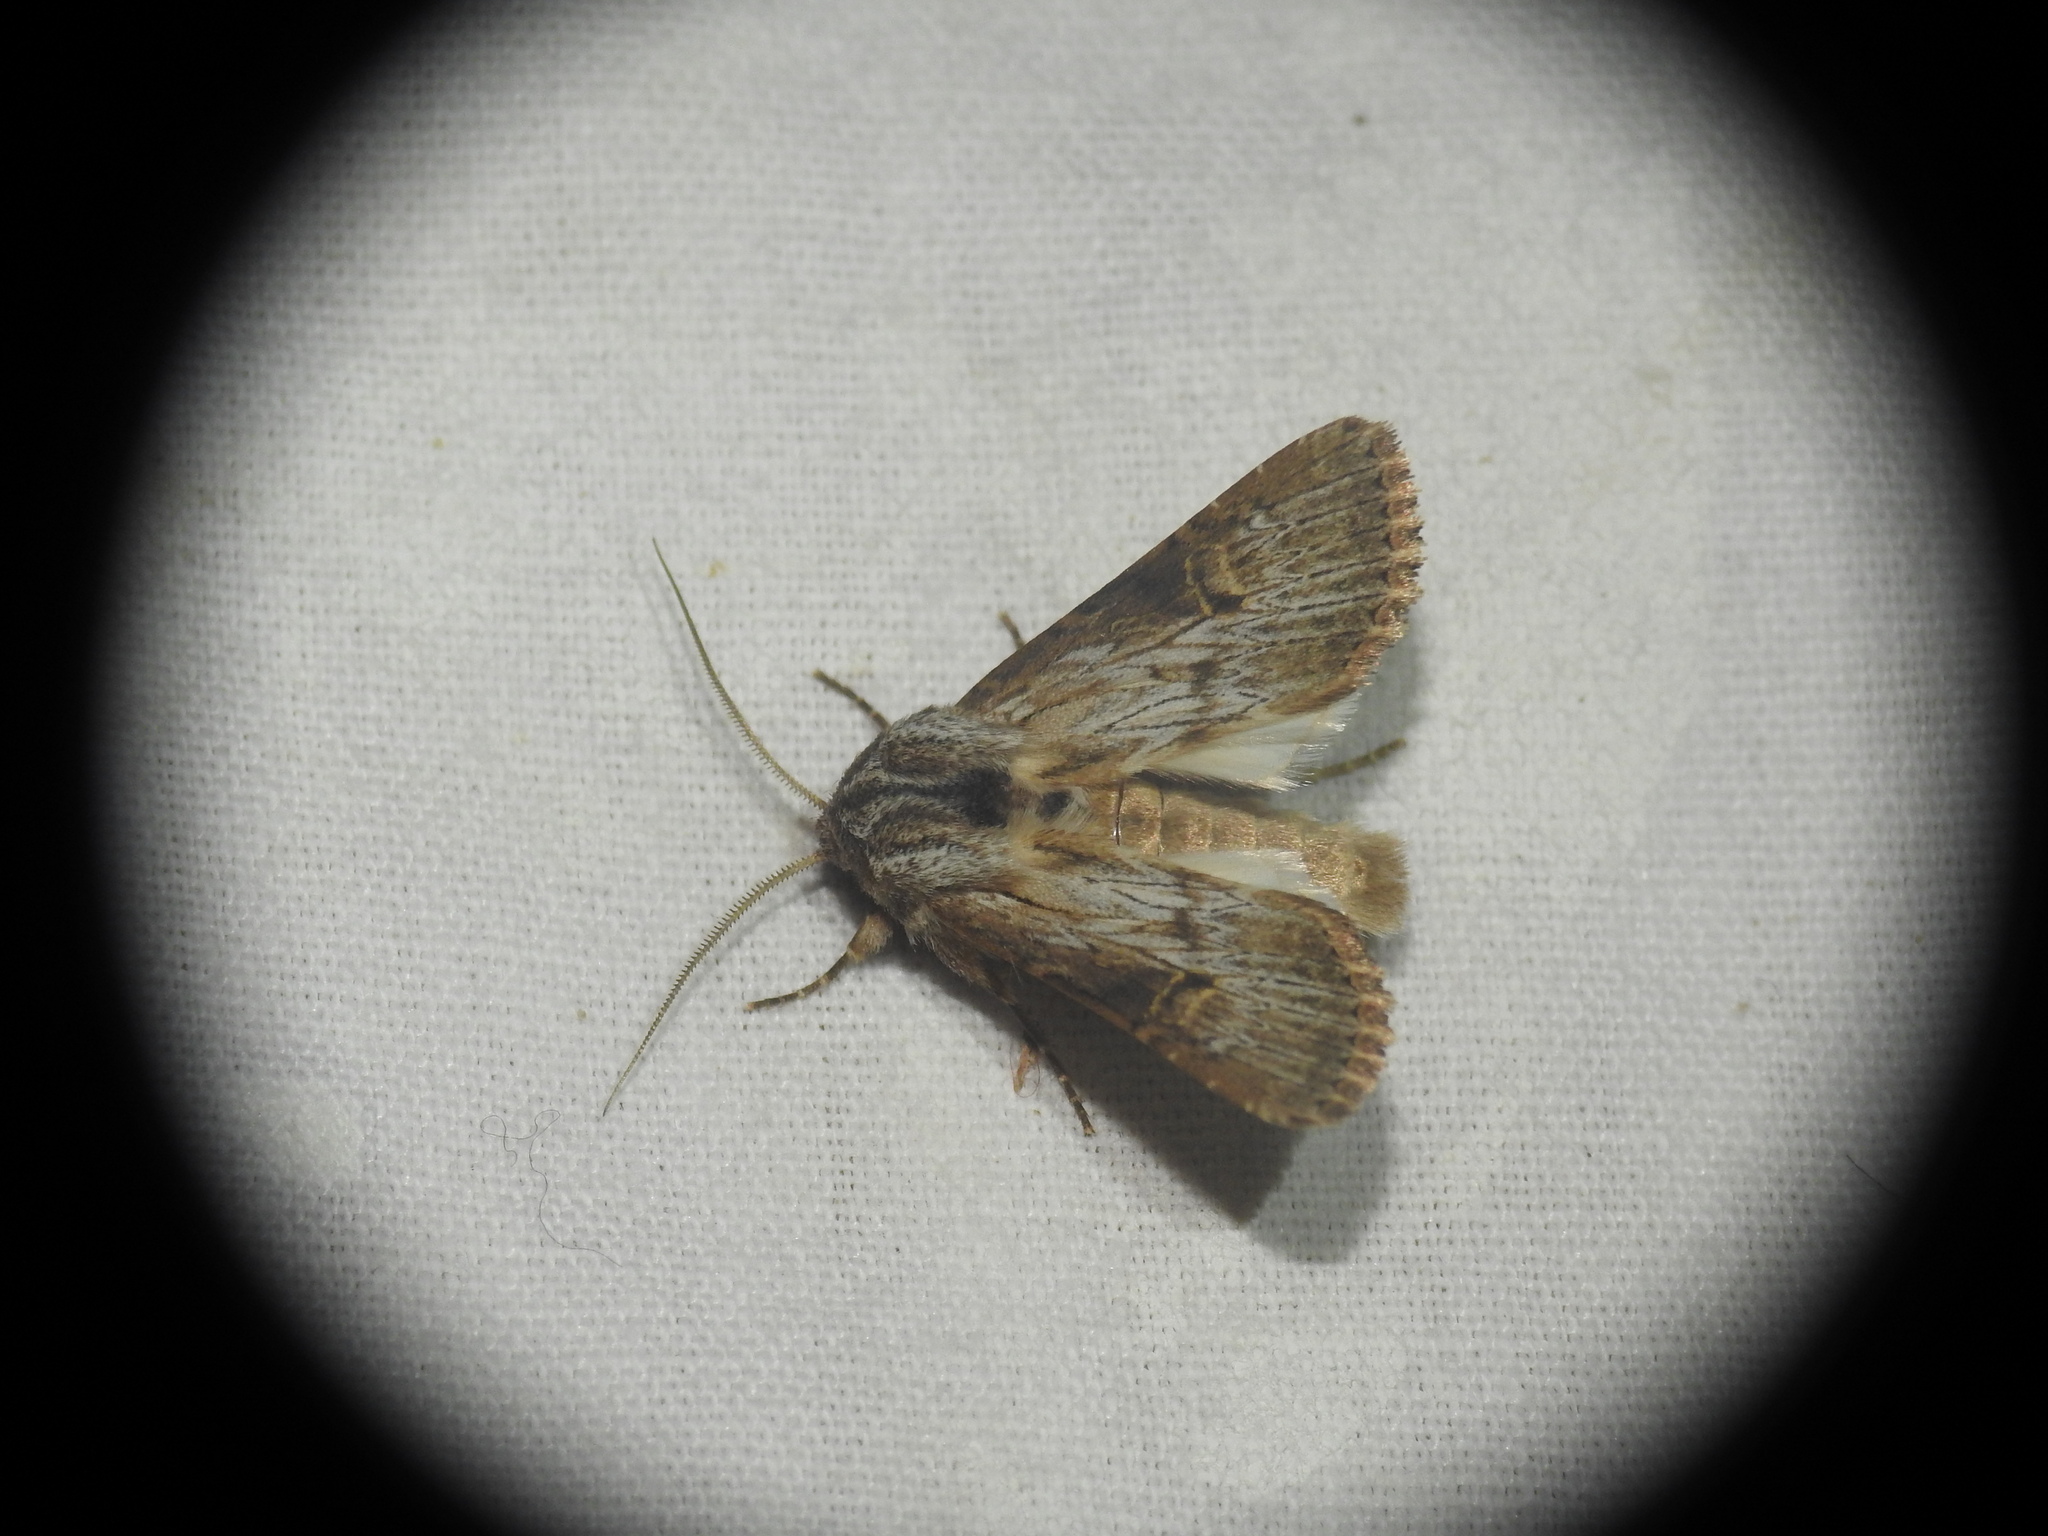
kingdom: Animalia
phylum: Arthropoda
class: Insecta
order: Lepidoptera
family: Noctuidae
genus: Aporophyla
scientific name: Aporophyla australis
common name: Feathered brindle
